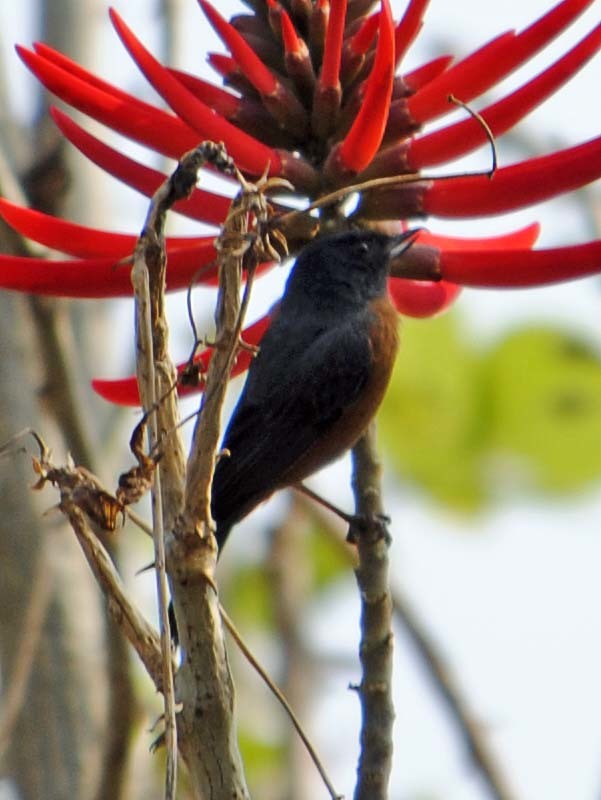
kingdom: Animalia
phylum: Chordata
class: Aves
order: Passeriformes
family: Thraupidae
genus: Diglossa
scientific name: Diglossa baritula
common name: Cinnamon-bellied flowerpiercer
